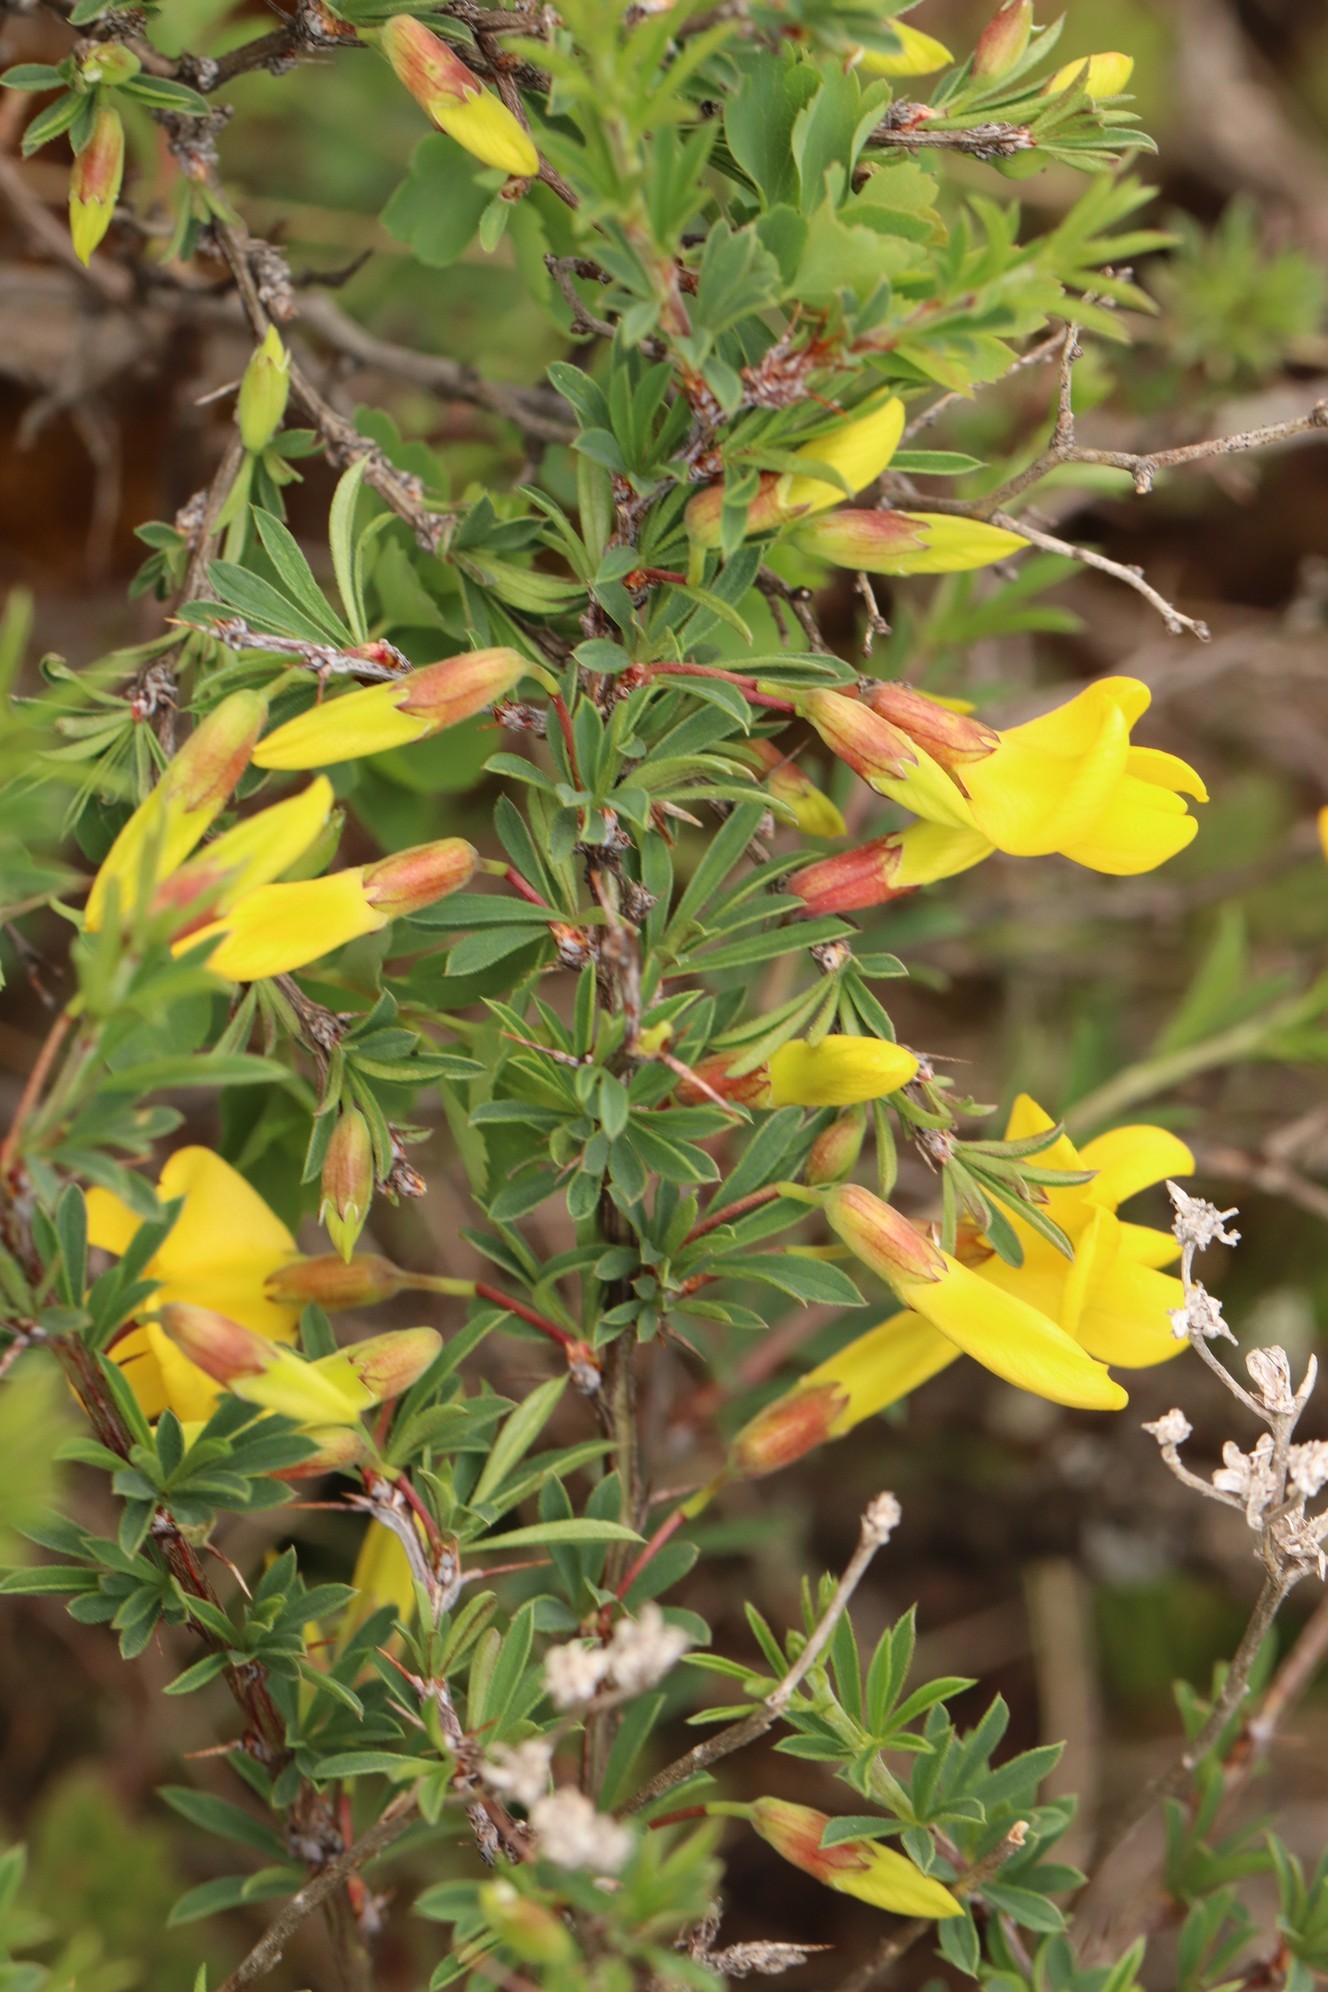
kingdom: Plantae
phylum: Tracheophyta
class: Magnoliopsida
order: Fabales
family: Fabaceae
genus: Caragana
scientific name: Caragana pygmaea
